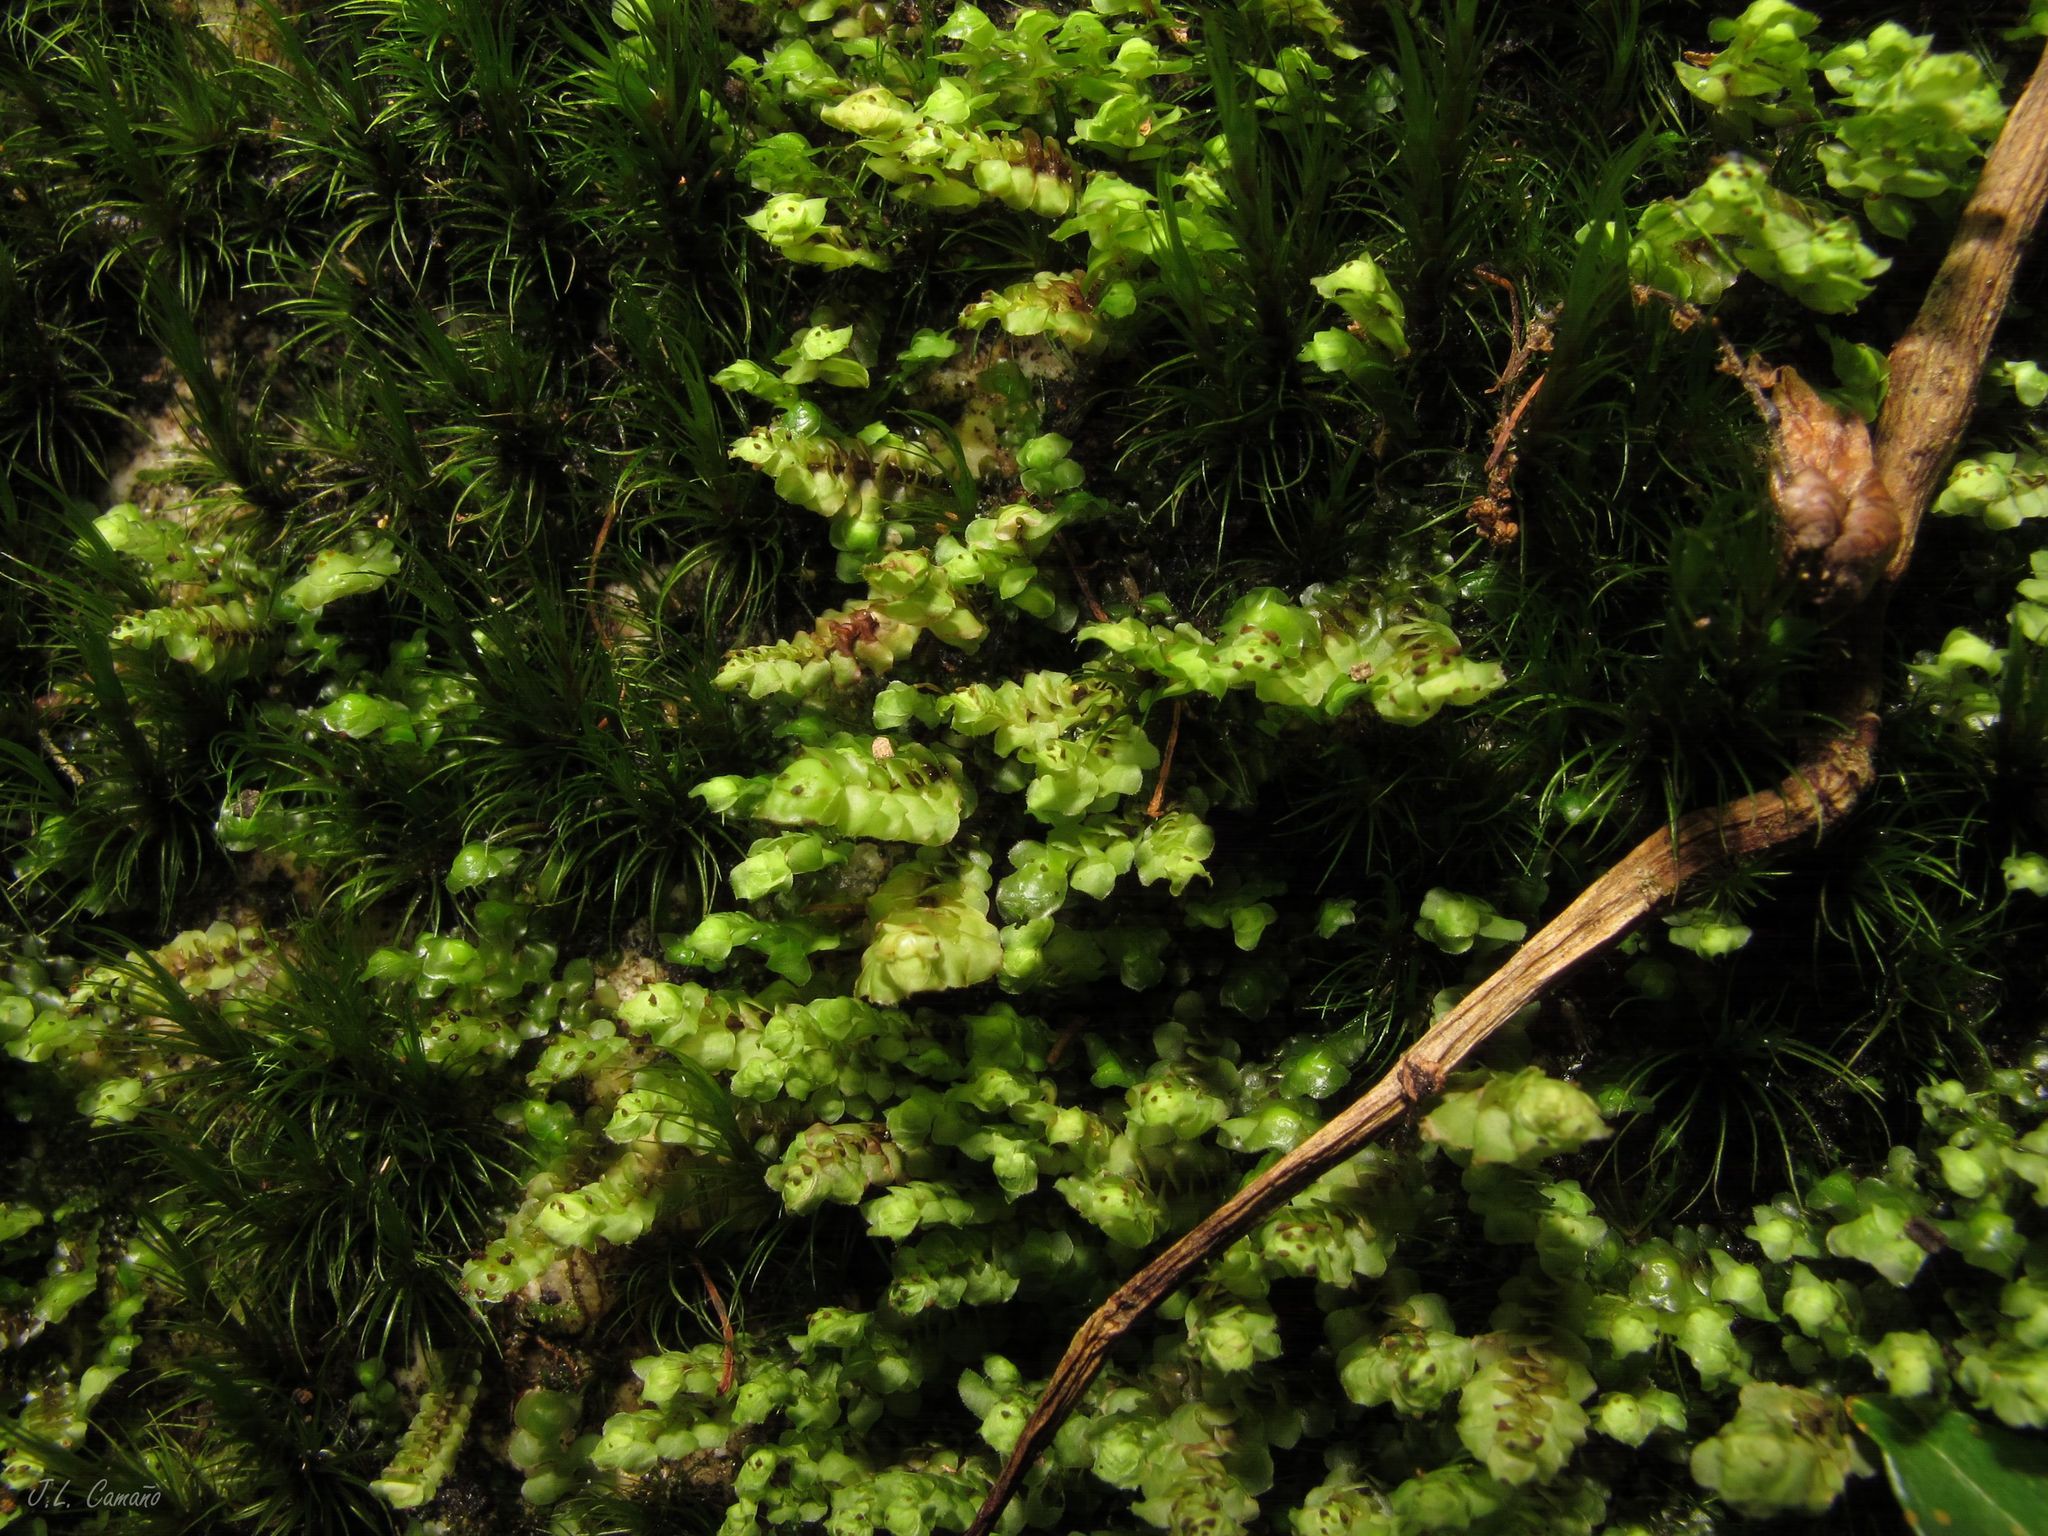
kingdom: Plantae
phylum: Marchantiophyta
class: Jungermanniopsida
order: Jungermanniales
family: Scapaniaceae
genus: Scapania
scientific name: Scapania nemorea
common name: Grove earwort
